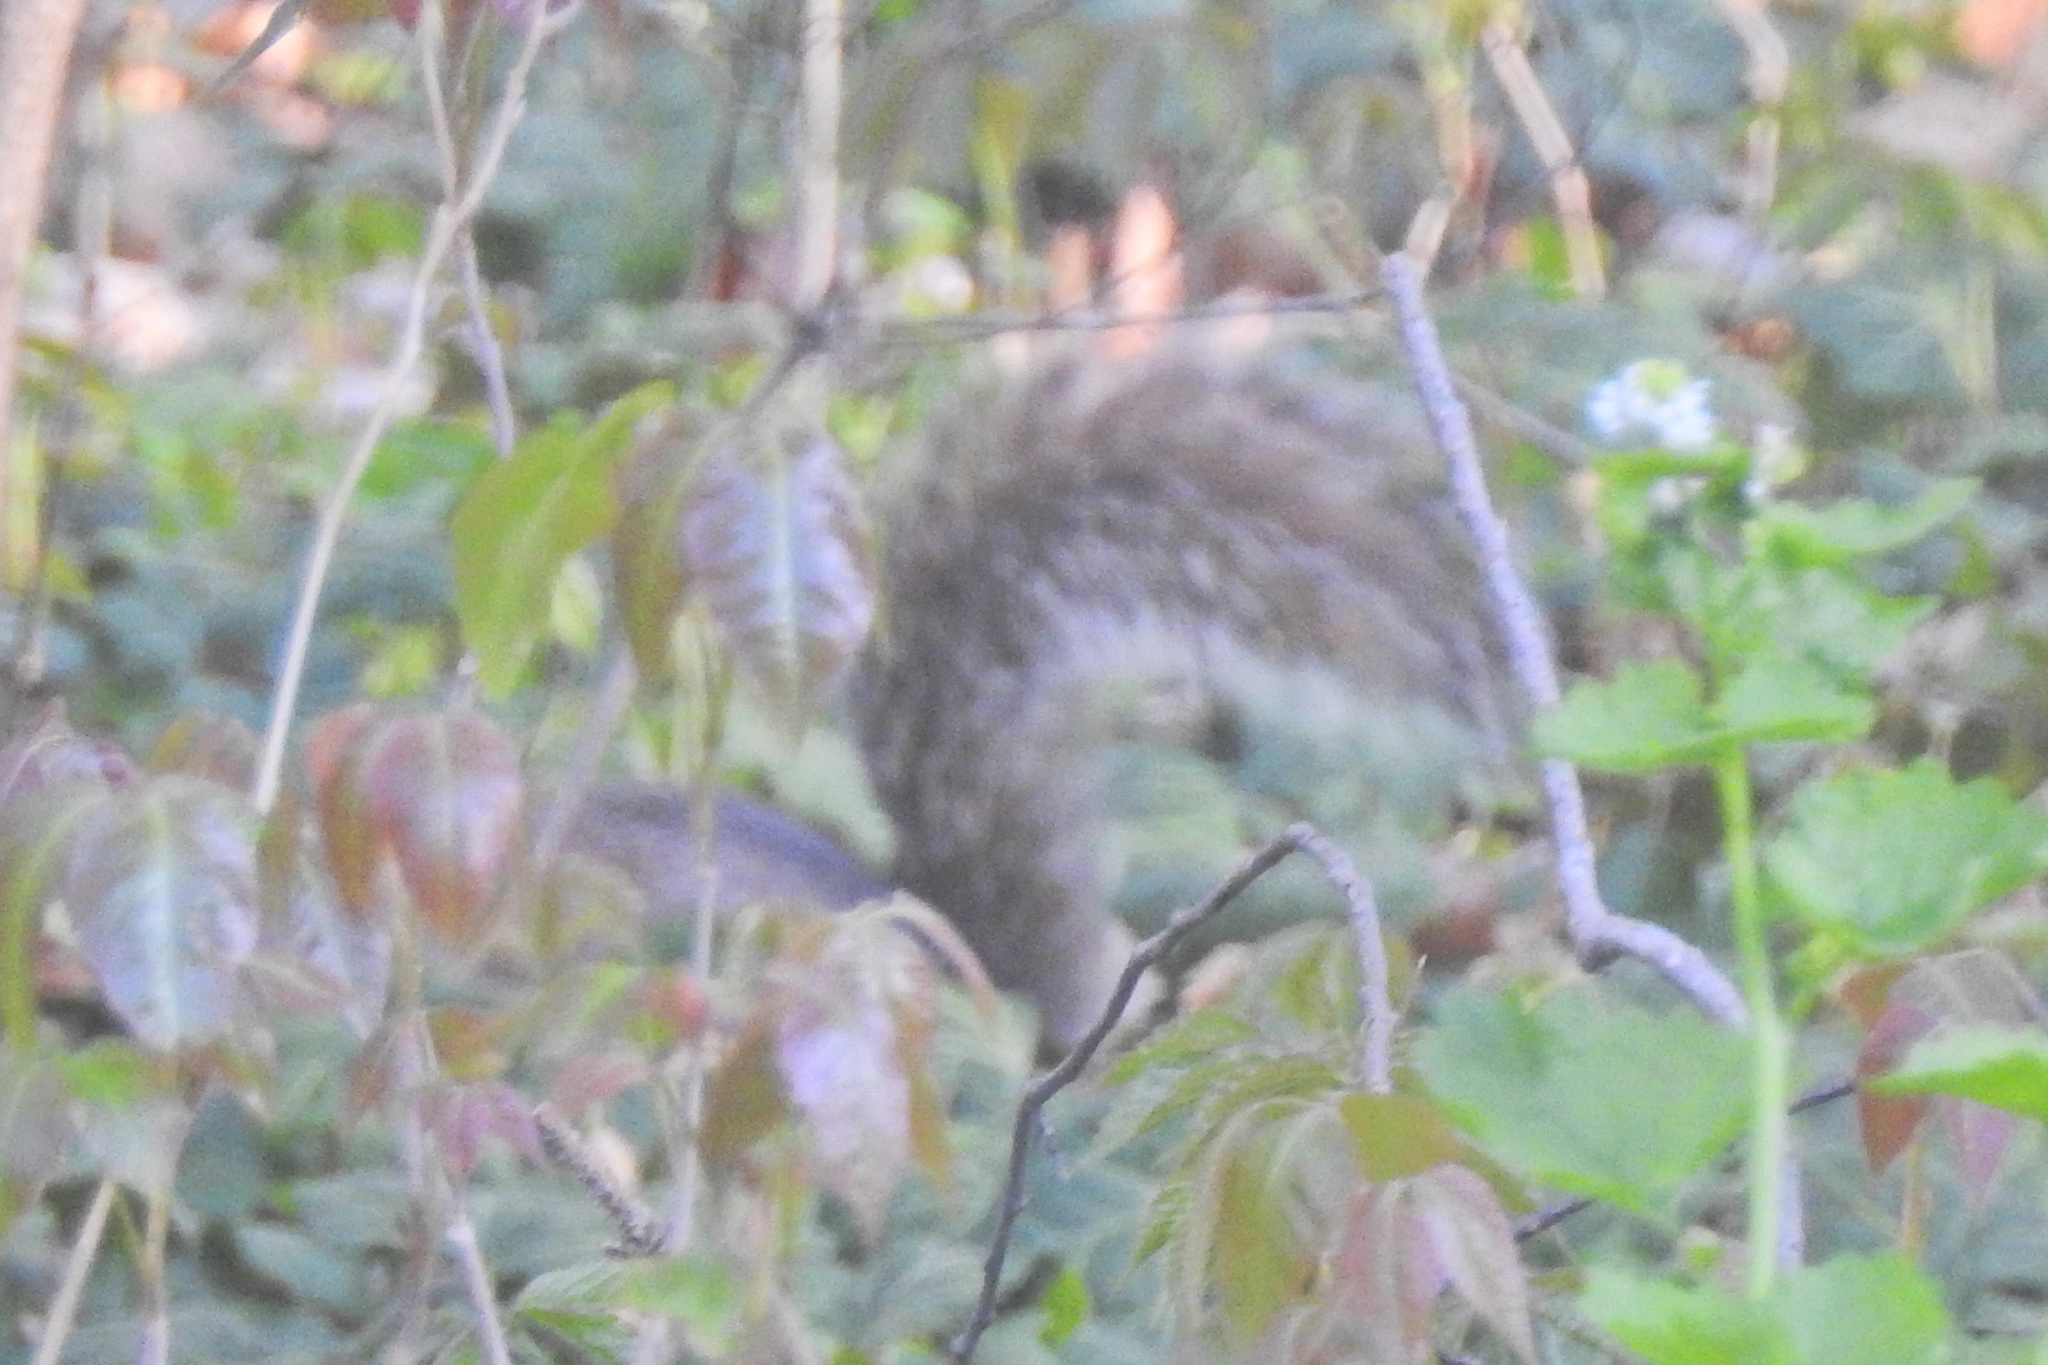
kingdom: Animalia
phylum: Chordata
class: Mammalia
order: Rodentia
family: Sciuridae
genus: Sciurus
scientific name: Sciurus carolinensis
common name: Eastern gray squirrel
